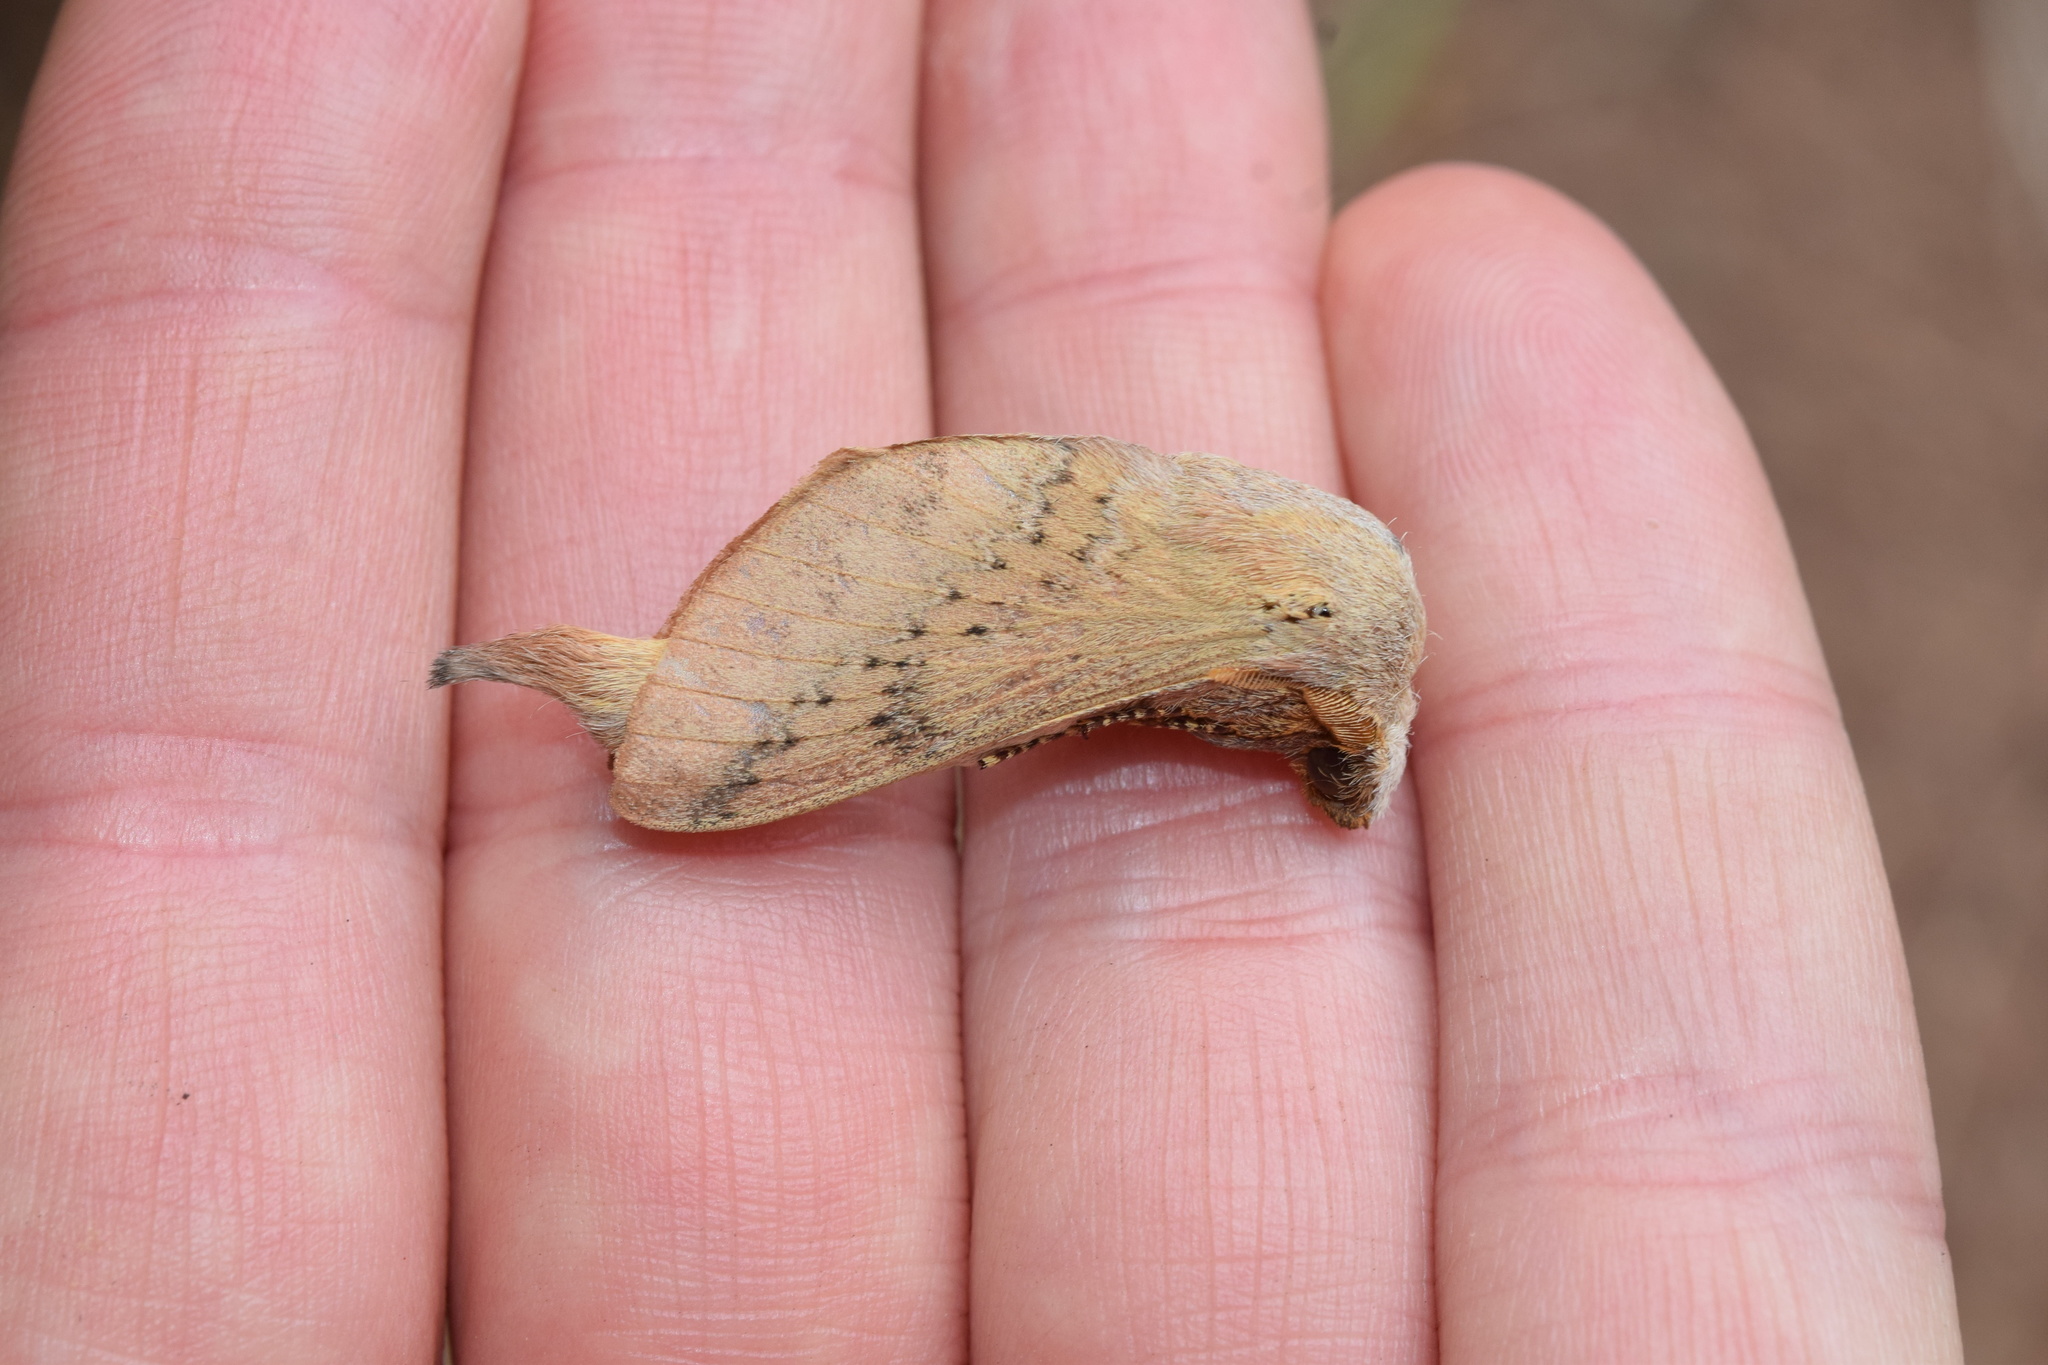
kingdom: Animalia
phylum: Arthropoda
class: Insecta
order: Lepidoptera
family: Lasiocampidae
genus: Pallastica
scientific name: Pallastica pallens
